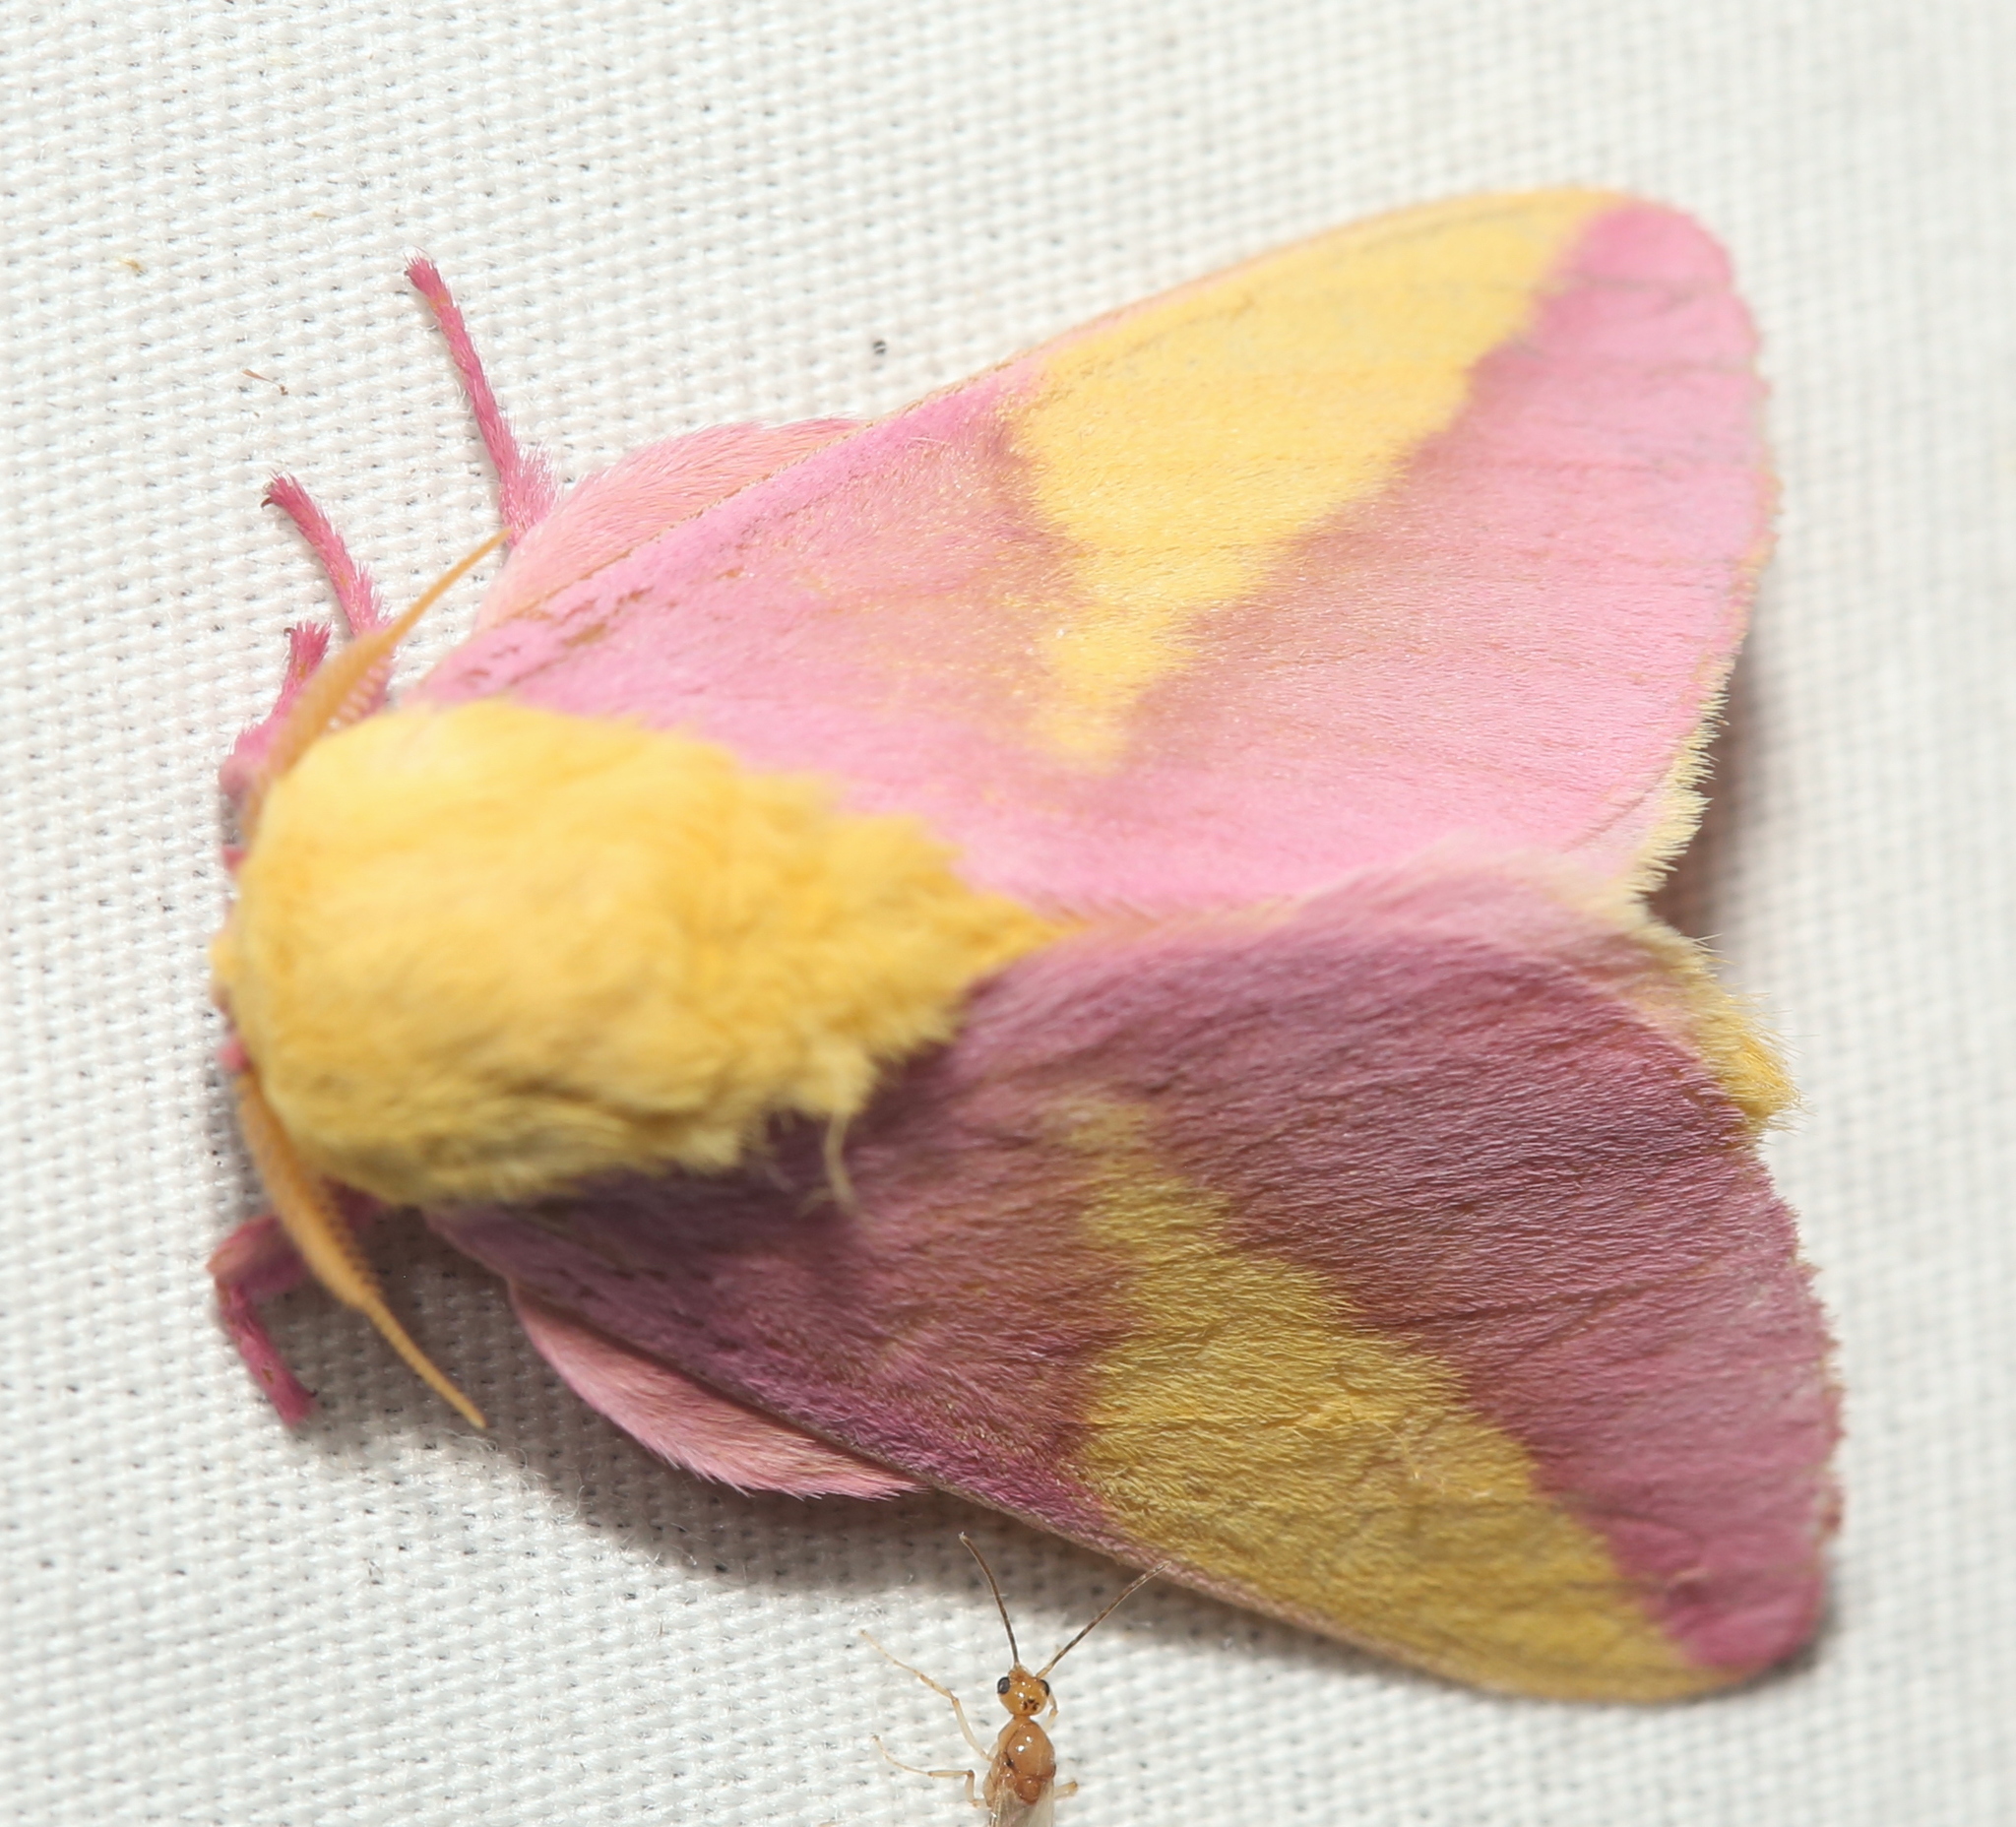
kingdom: Animalia
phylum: Arthropoda
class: Insecta
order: Lepidoptera
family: Saturniidae
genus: Dryocampa
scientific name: Dryocampa rubicunda
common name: Rosy maple moth
